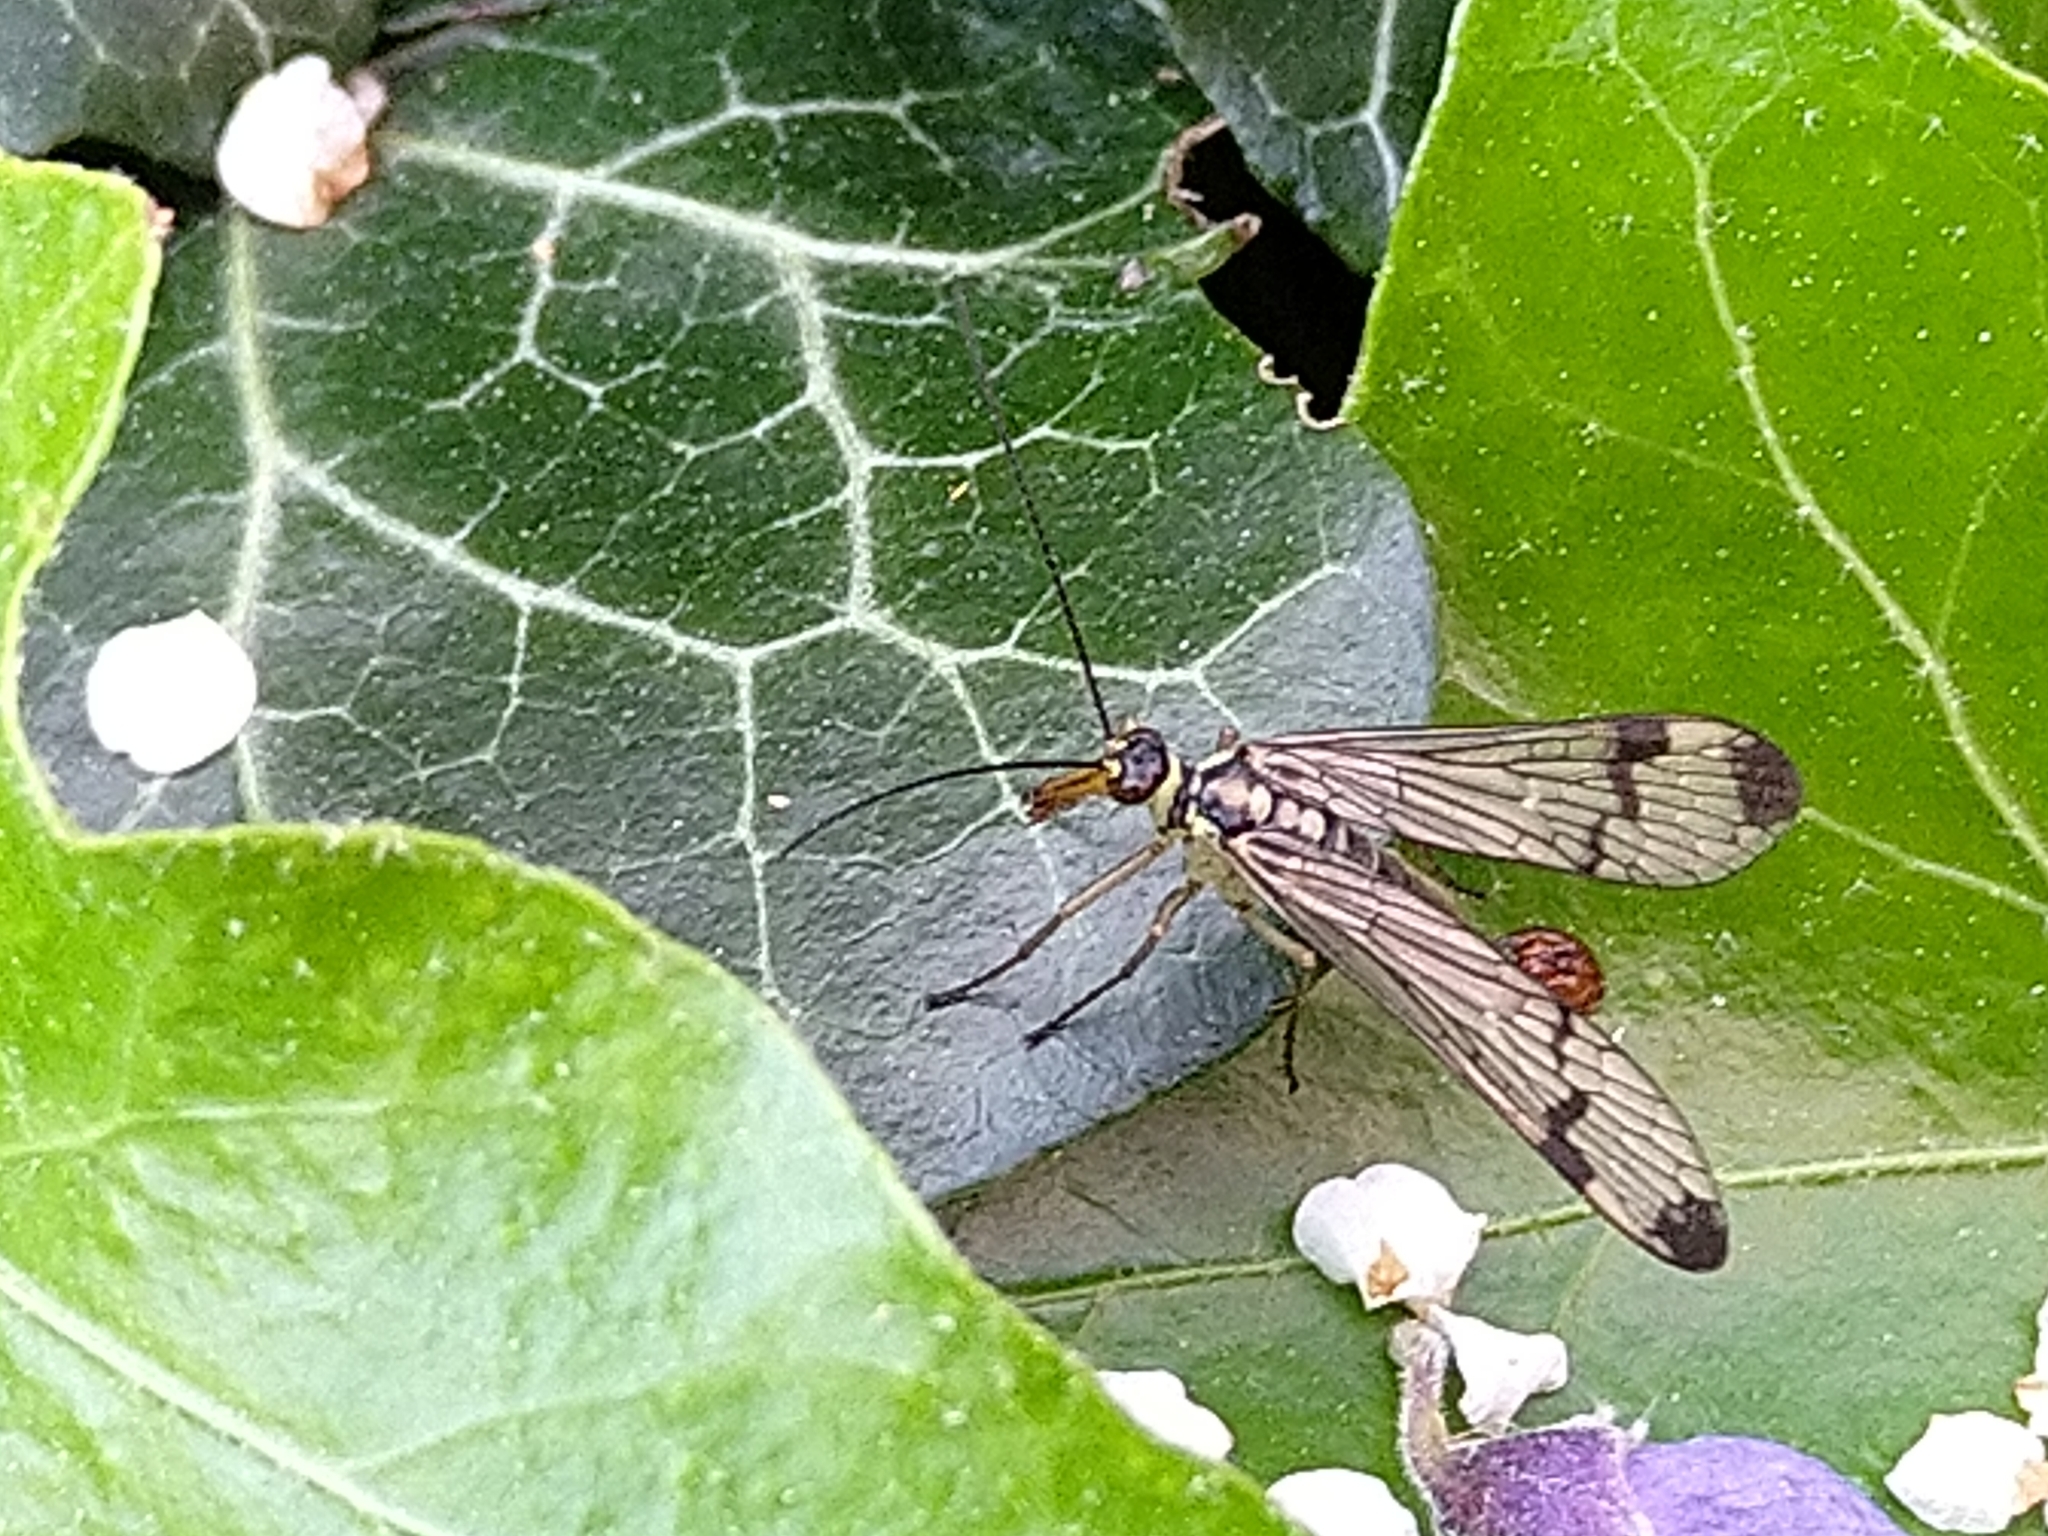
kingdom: Animalia
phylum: Arthropoda
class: Insecta
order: Mecoptera
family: Panorpidae
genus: Panorpa
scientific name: Panorpa communis
